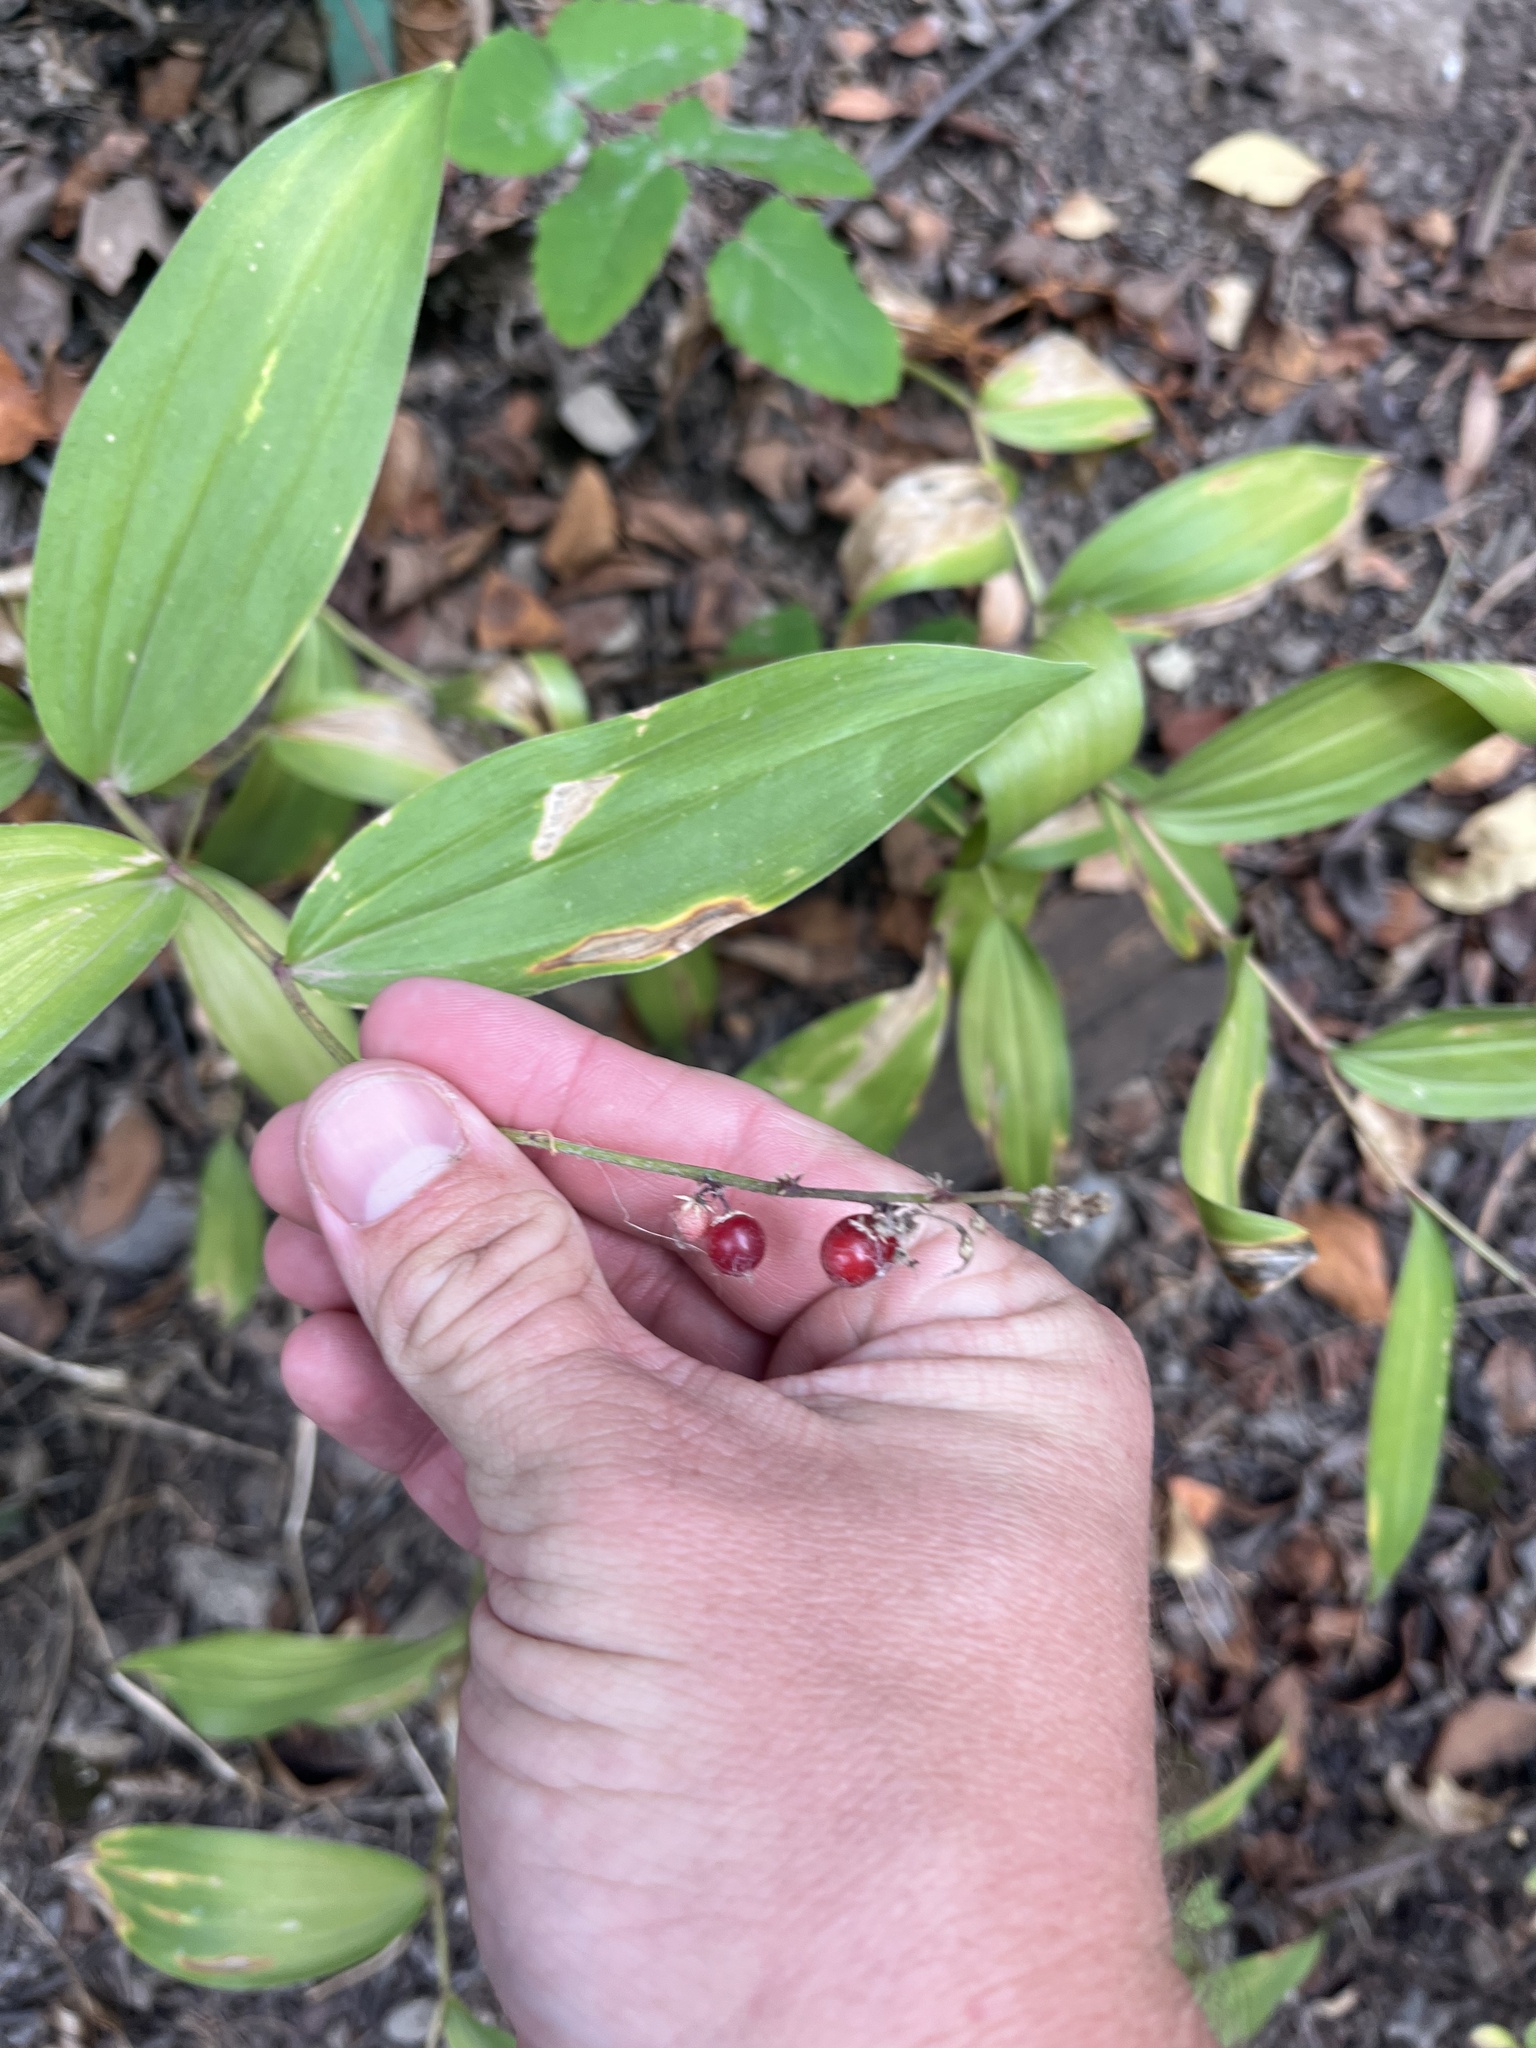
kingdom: Plantae
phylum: Tracheophyta
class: Liliopsida
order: Asparagales
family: Asparagaceae
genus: Maianthemum
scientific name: Maianthemum racemosum
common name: False spikenard
